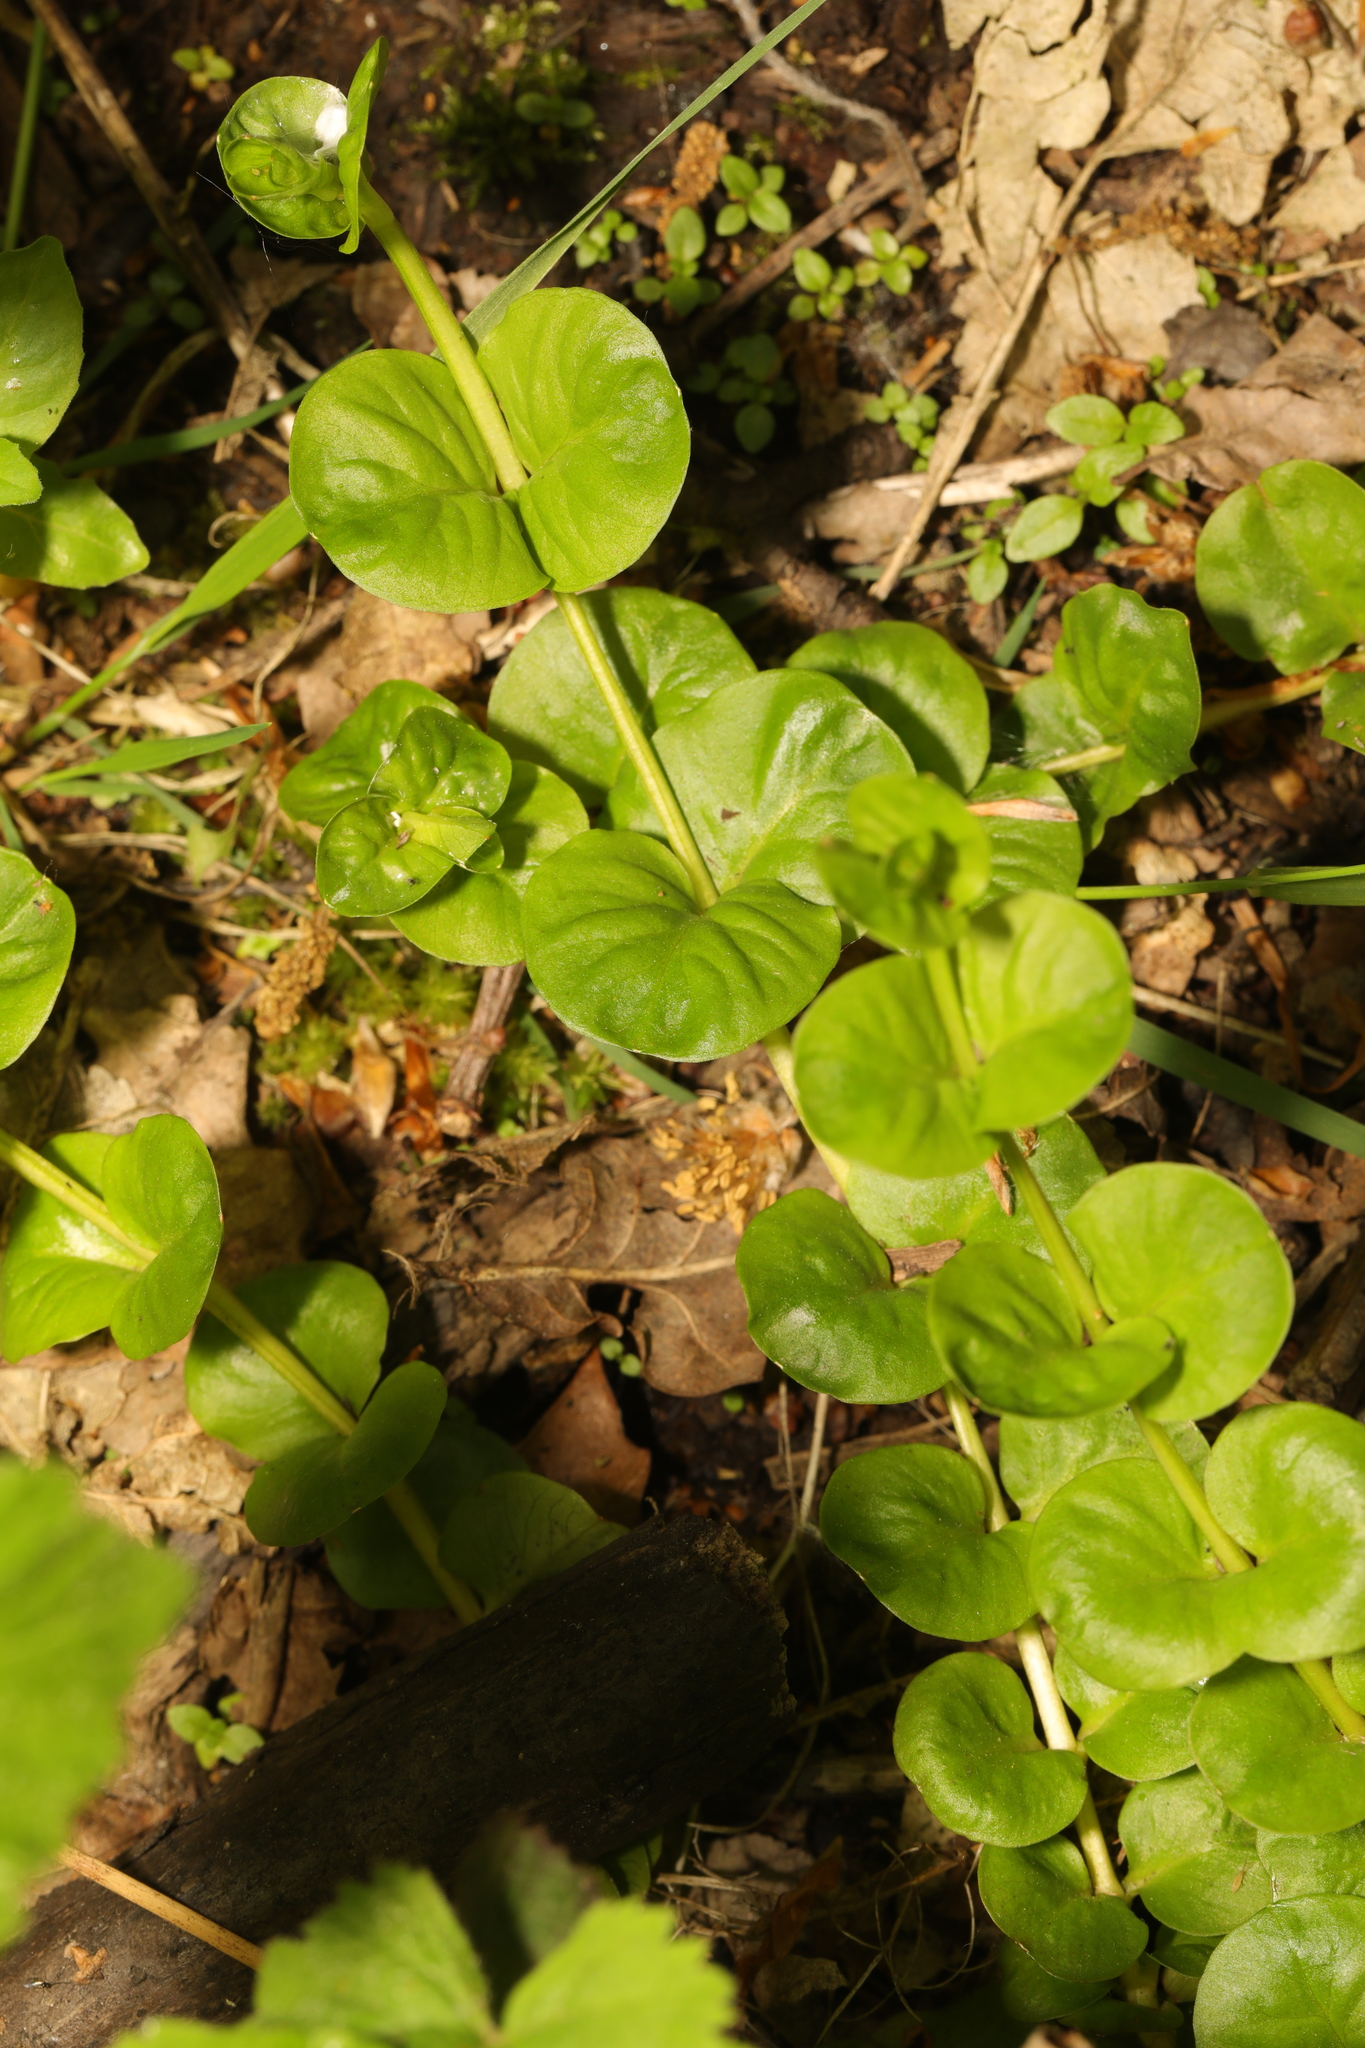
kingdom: Plantae
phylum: Tracheophyta
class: Magnoliopsida
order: Ericales
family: Primulaceae
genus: Lysimachia
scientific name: Lysimachia nummularia
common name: Moneywort
